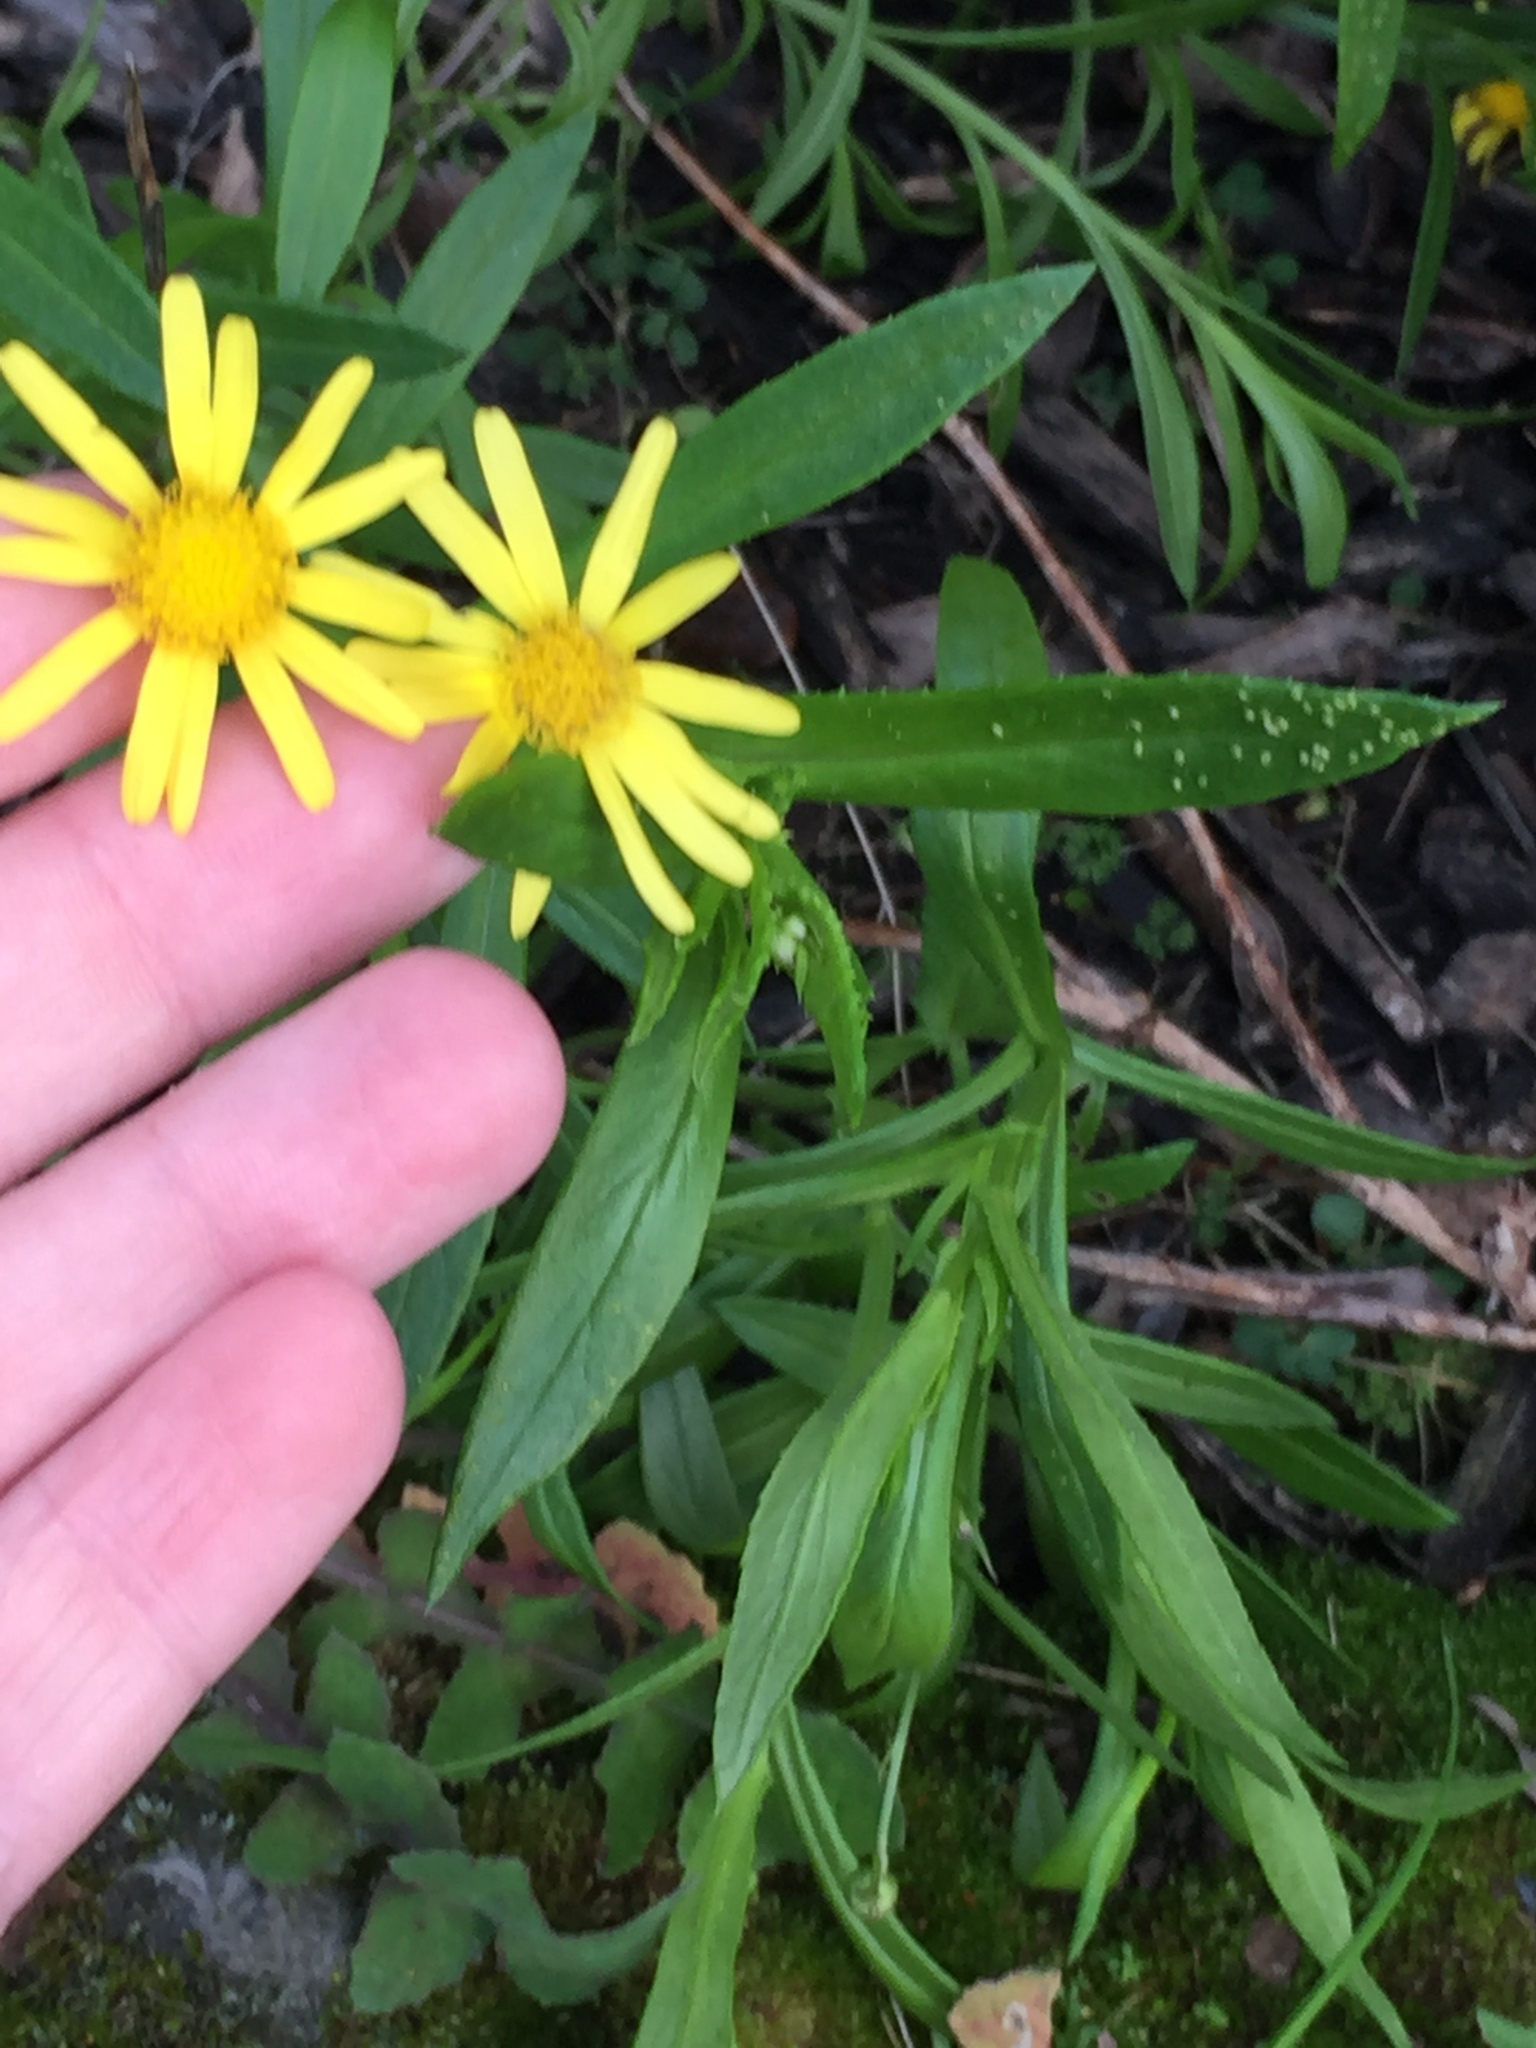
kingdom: Plantae
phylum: Tracheophyta
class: Magnoliopsida
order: Asterales
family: Asteraceae
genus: Senecio
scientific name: Senecio skirrhodon
